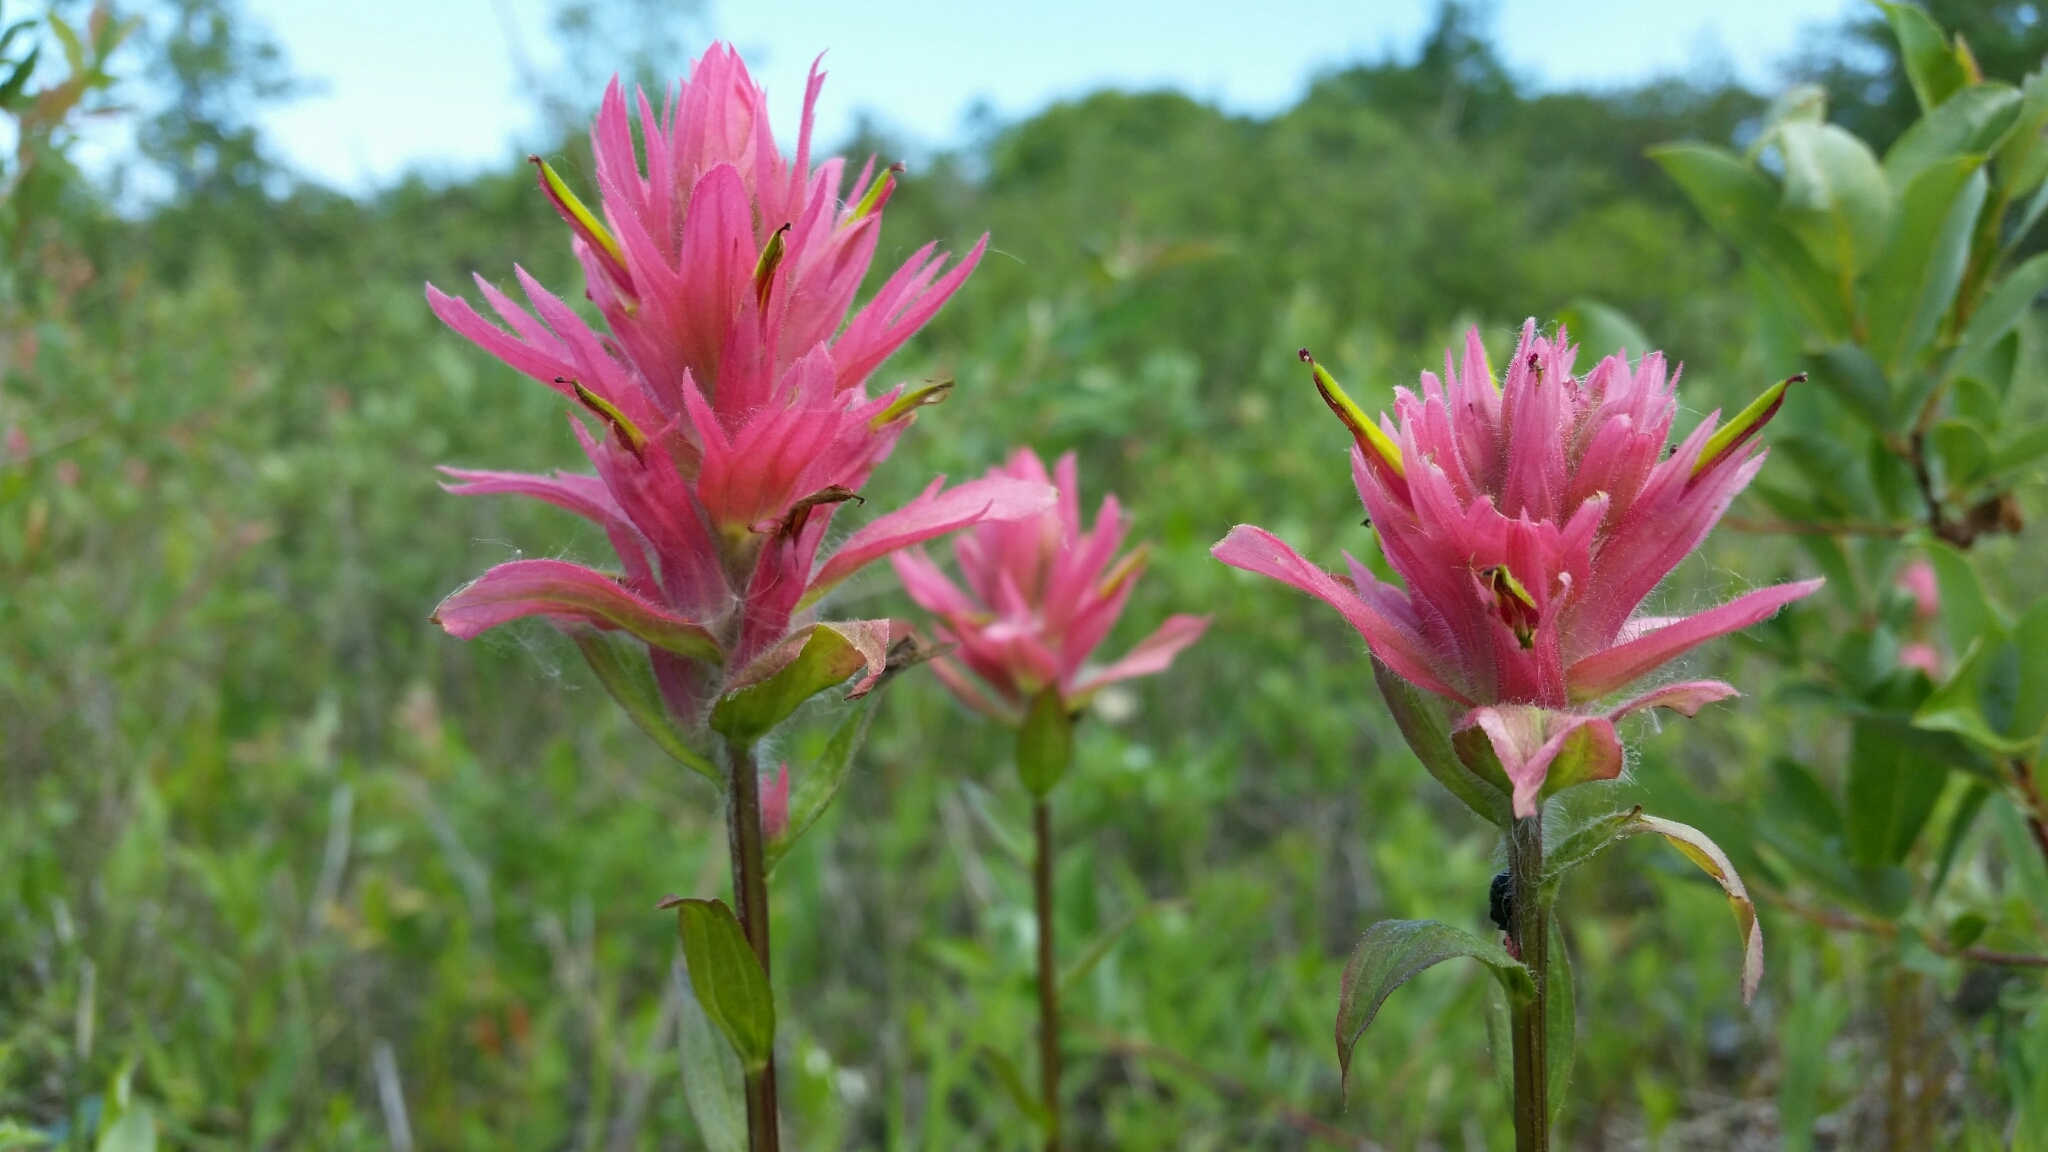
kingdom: Plantae
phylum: Tracheophyta
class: Magnoliopsida
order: Lamiales
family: Orobanchaceae
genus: Castilleja
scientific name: Castilleja miniata
